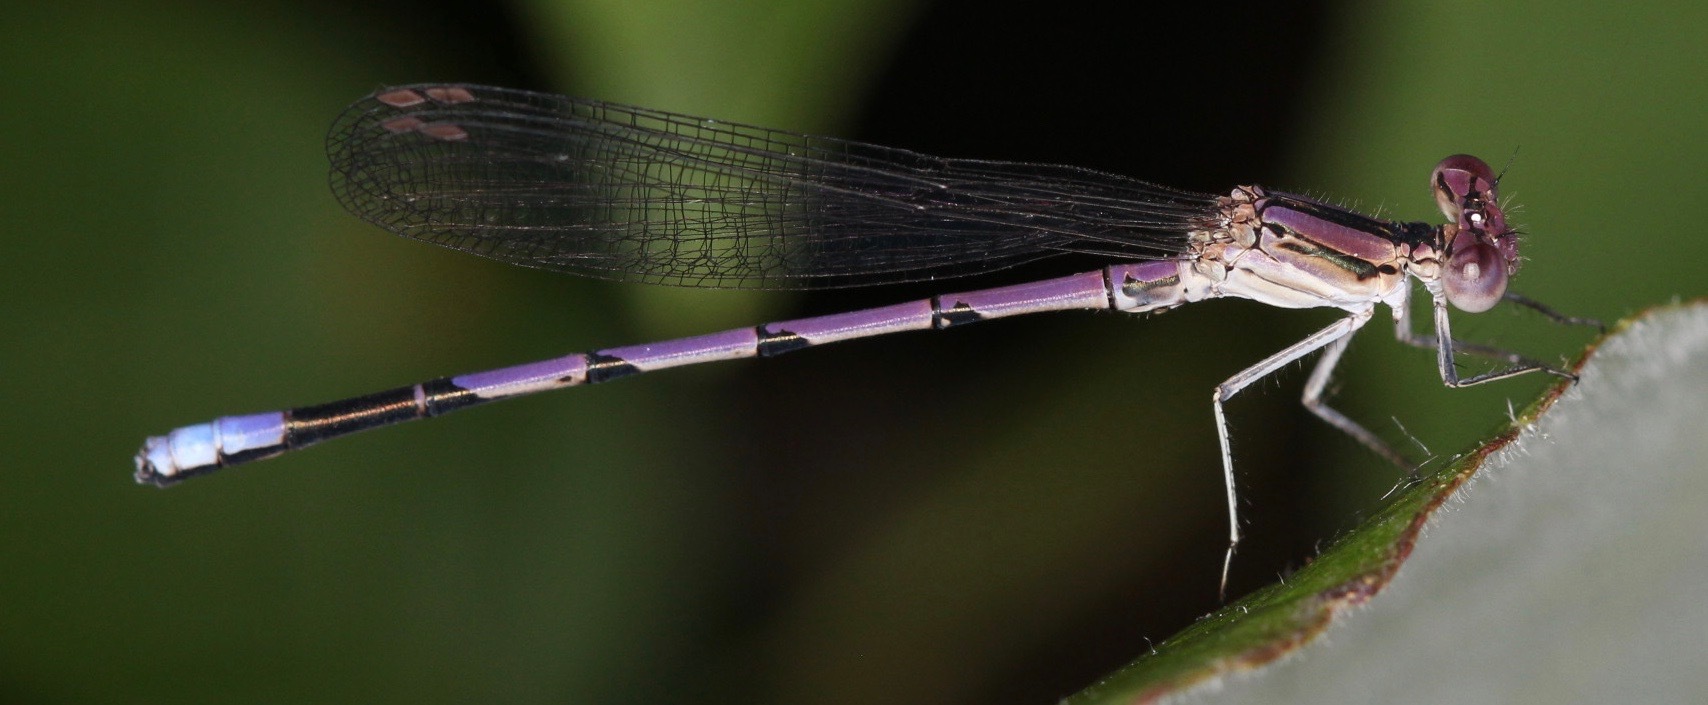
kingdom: Animalia
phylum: Arthropoda
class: Insecta
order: Odonata
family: Coenagrionidae
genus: Argia
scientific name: Argia fumipennis
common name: Variable dancer
